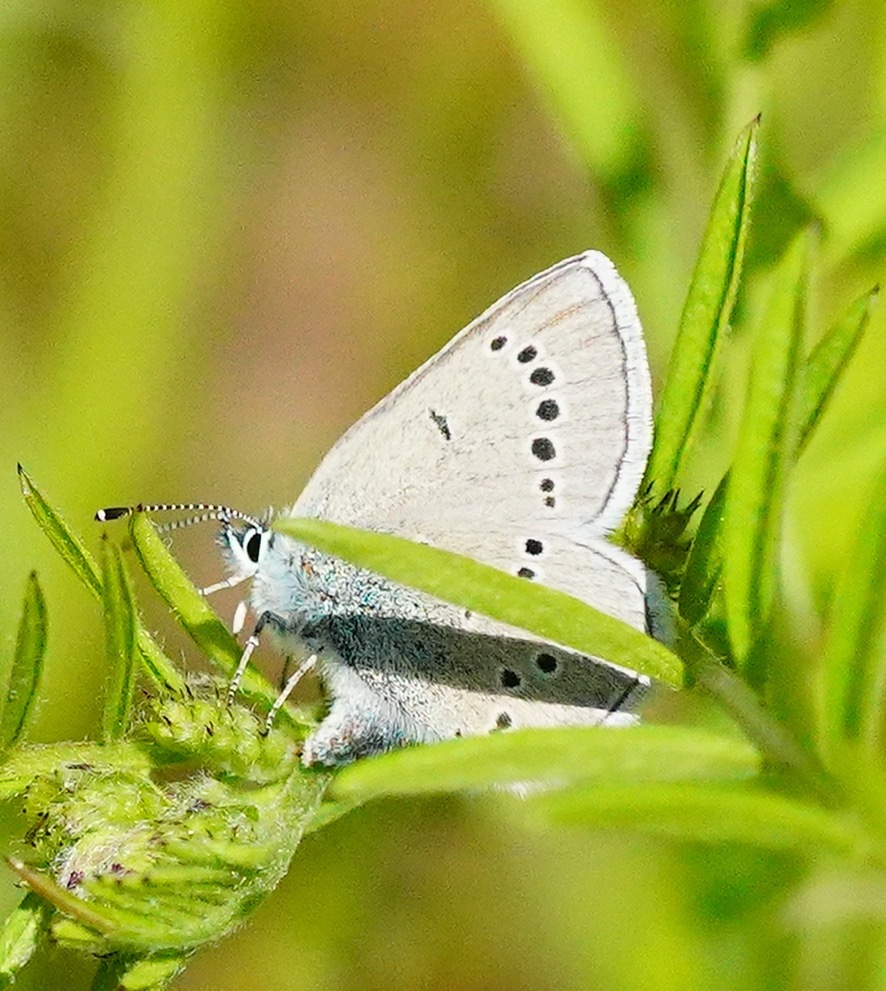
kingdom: Animalia
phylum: Arthropoda
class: Insecta
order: Lepidoptera
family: Lycaenidae
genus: Glaucopsyche
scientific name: Glaucopsyche lygdamus
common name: Silvery blue
